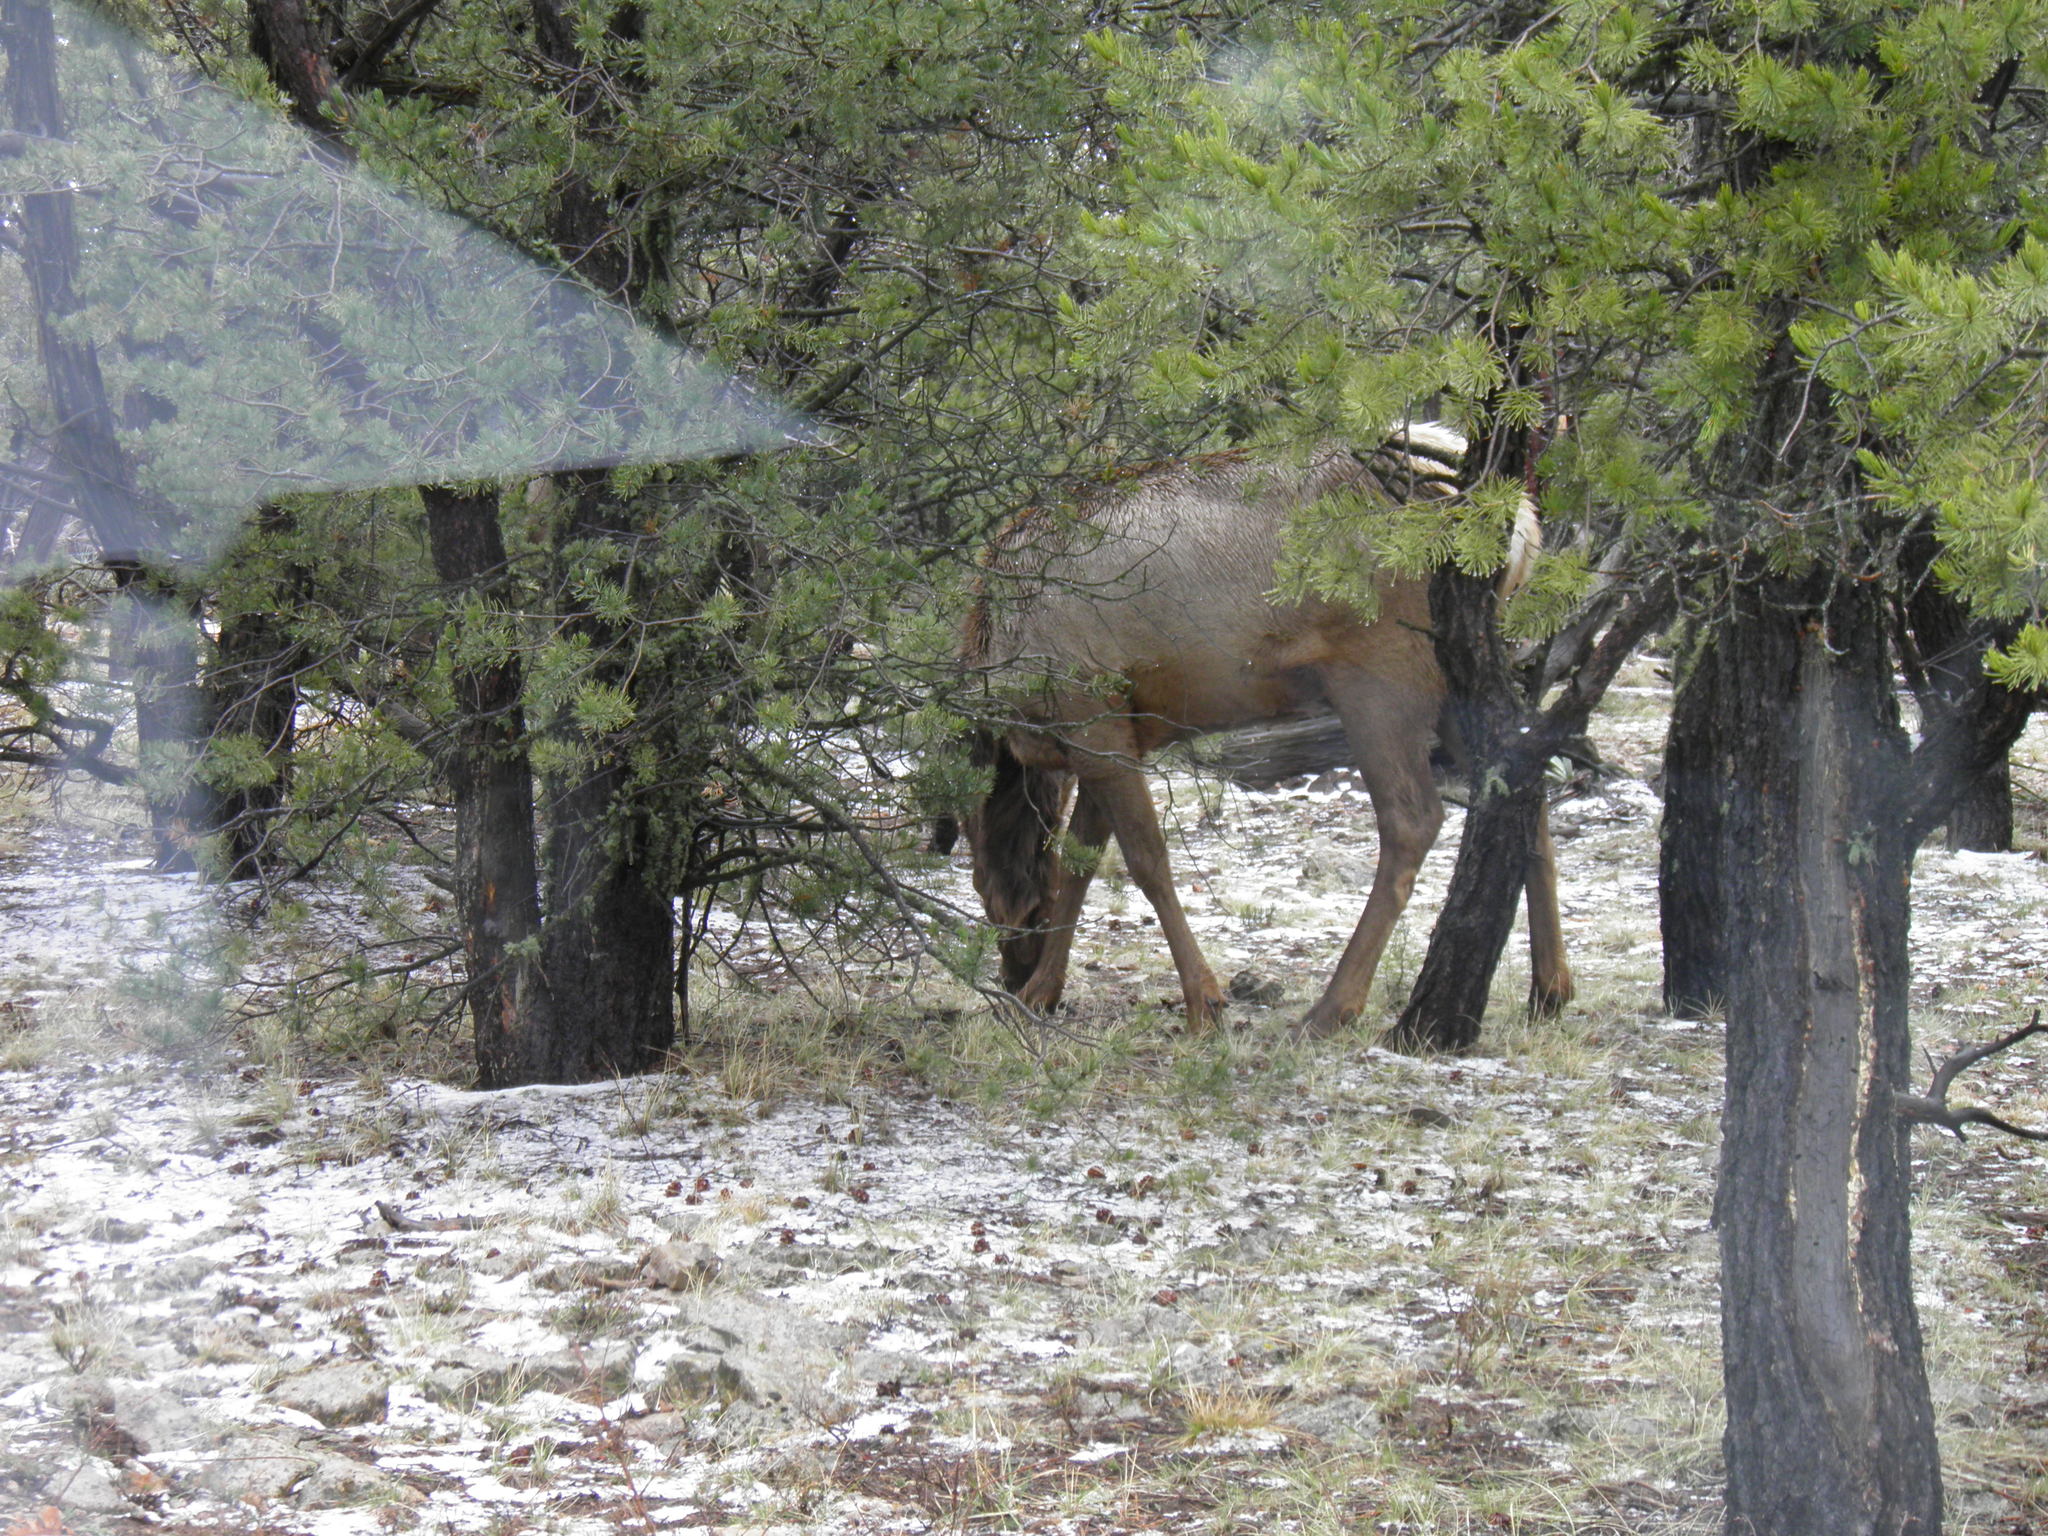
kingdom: Animalia
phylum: Chordata
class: Mammalia
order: Artiodactyla
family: Cervidae
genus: Cervus
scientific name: Cervus elaphus
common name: Red deer
